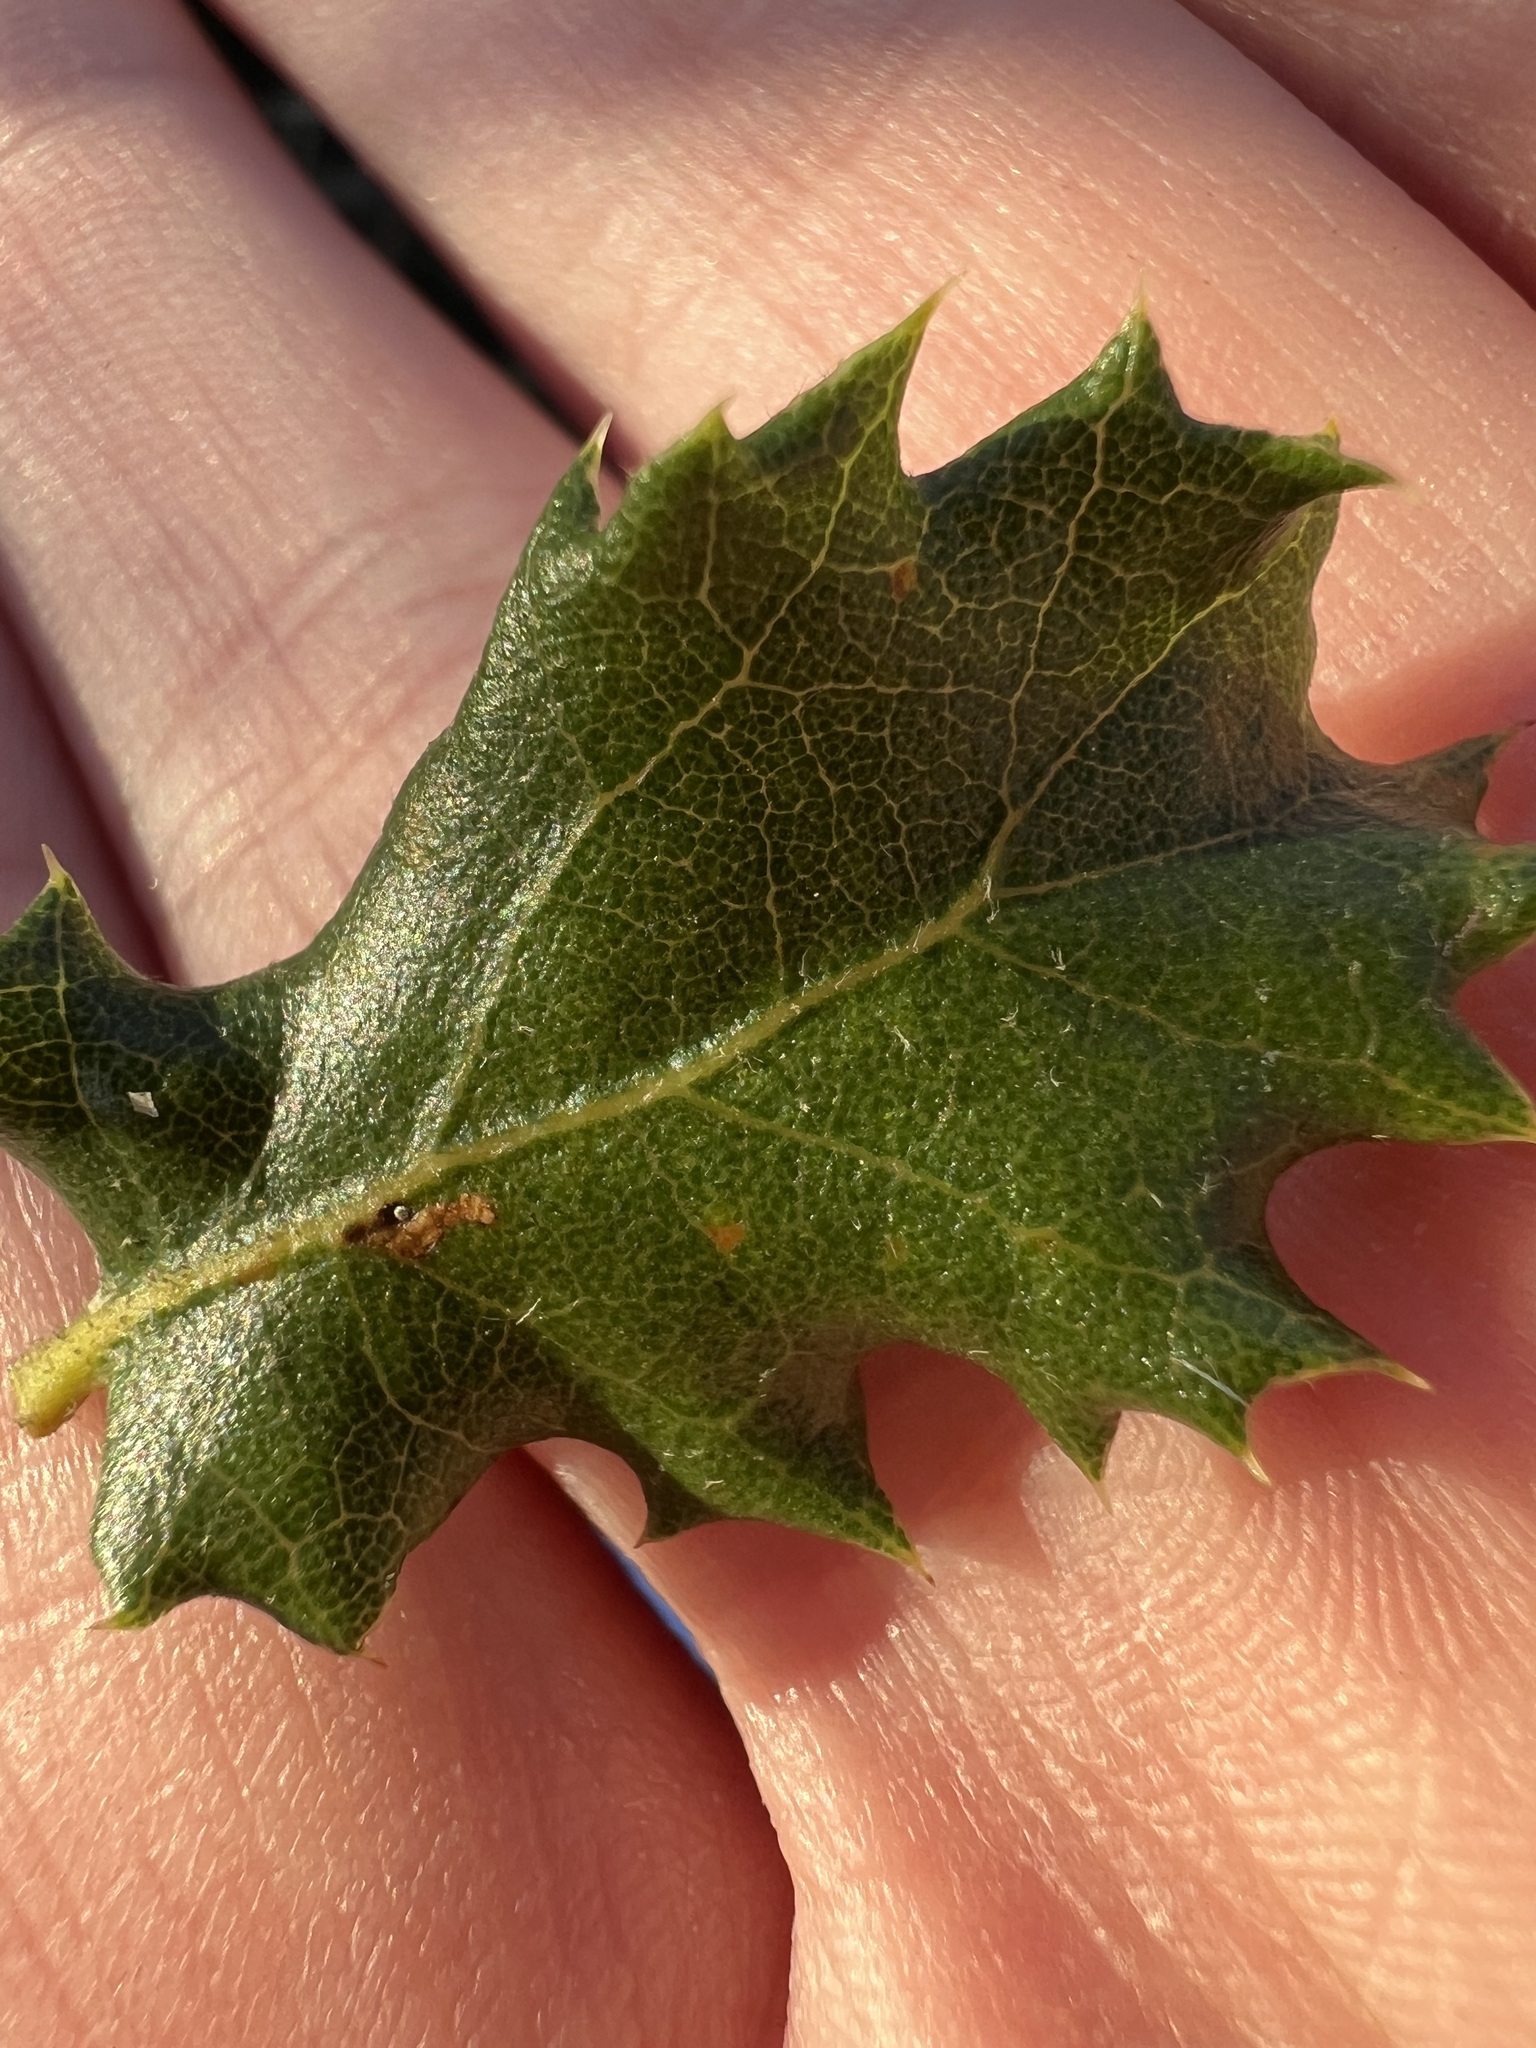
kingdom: Plantae
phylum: Tracheophyta
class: Magnoliopsida
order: Fagales
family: Fagaceae
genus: Quercus
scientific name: Quercus dumosa
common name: Coastal sage scrub oak
